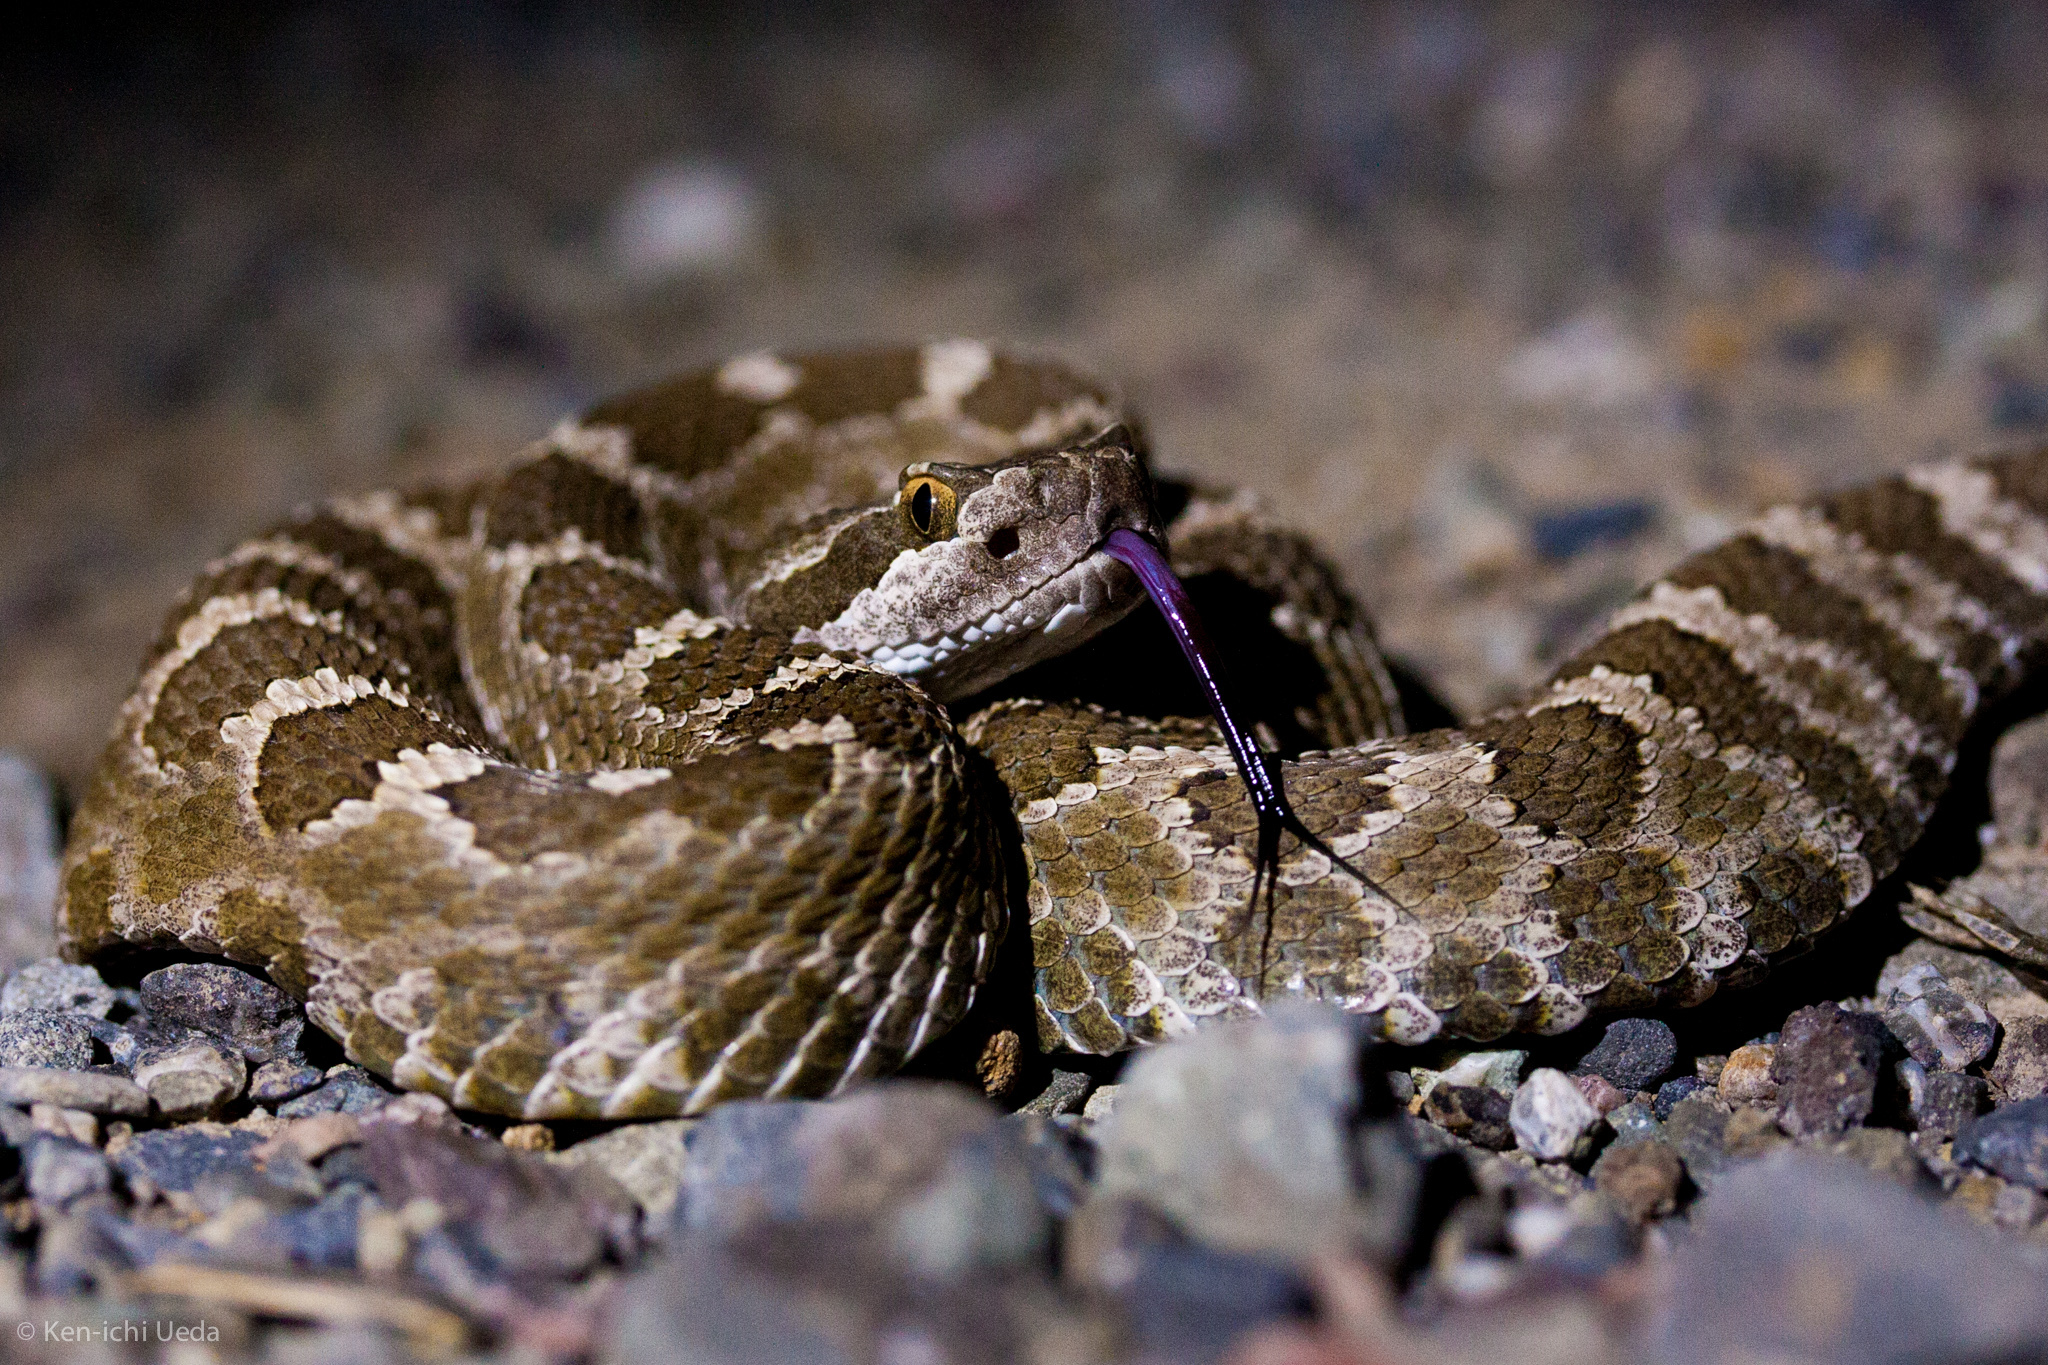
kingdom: Animalia
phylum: Chordata
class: Squamata
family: Viperidae
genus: Crotalus
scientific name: Crotalus oreganus
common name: Abyssus
